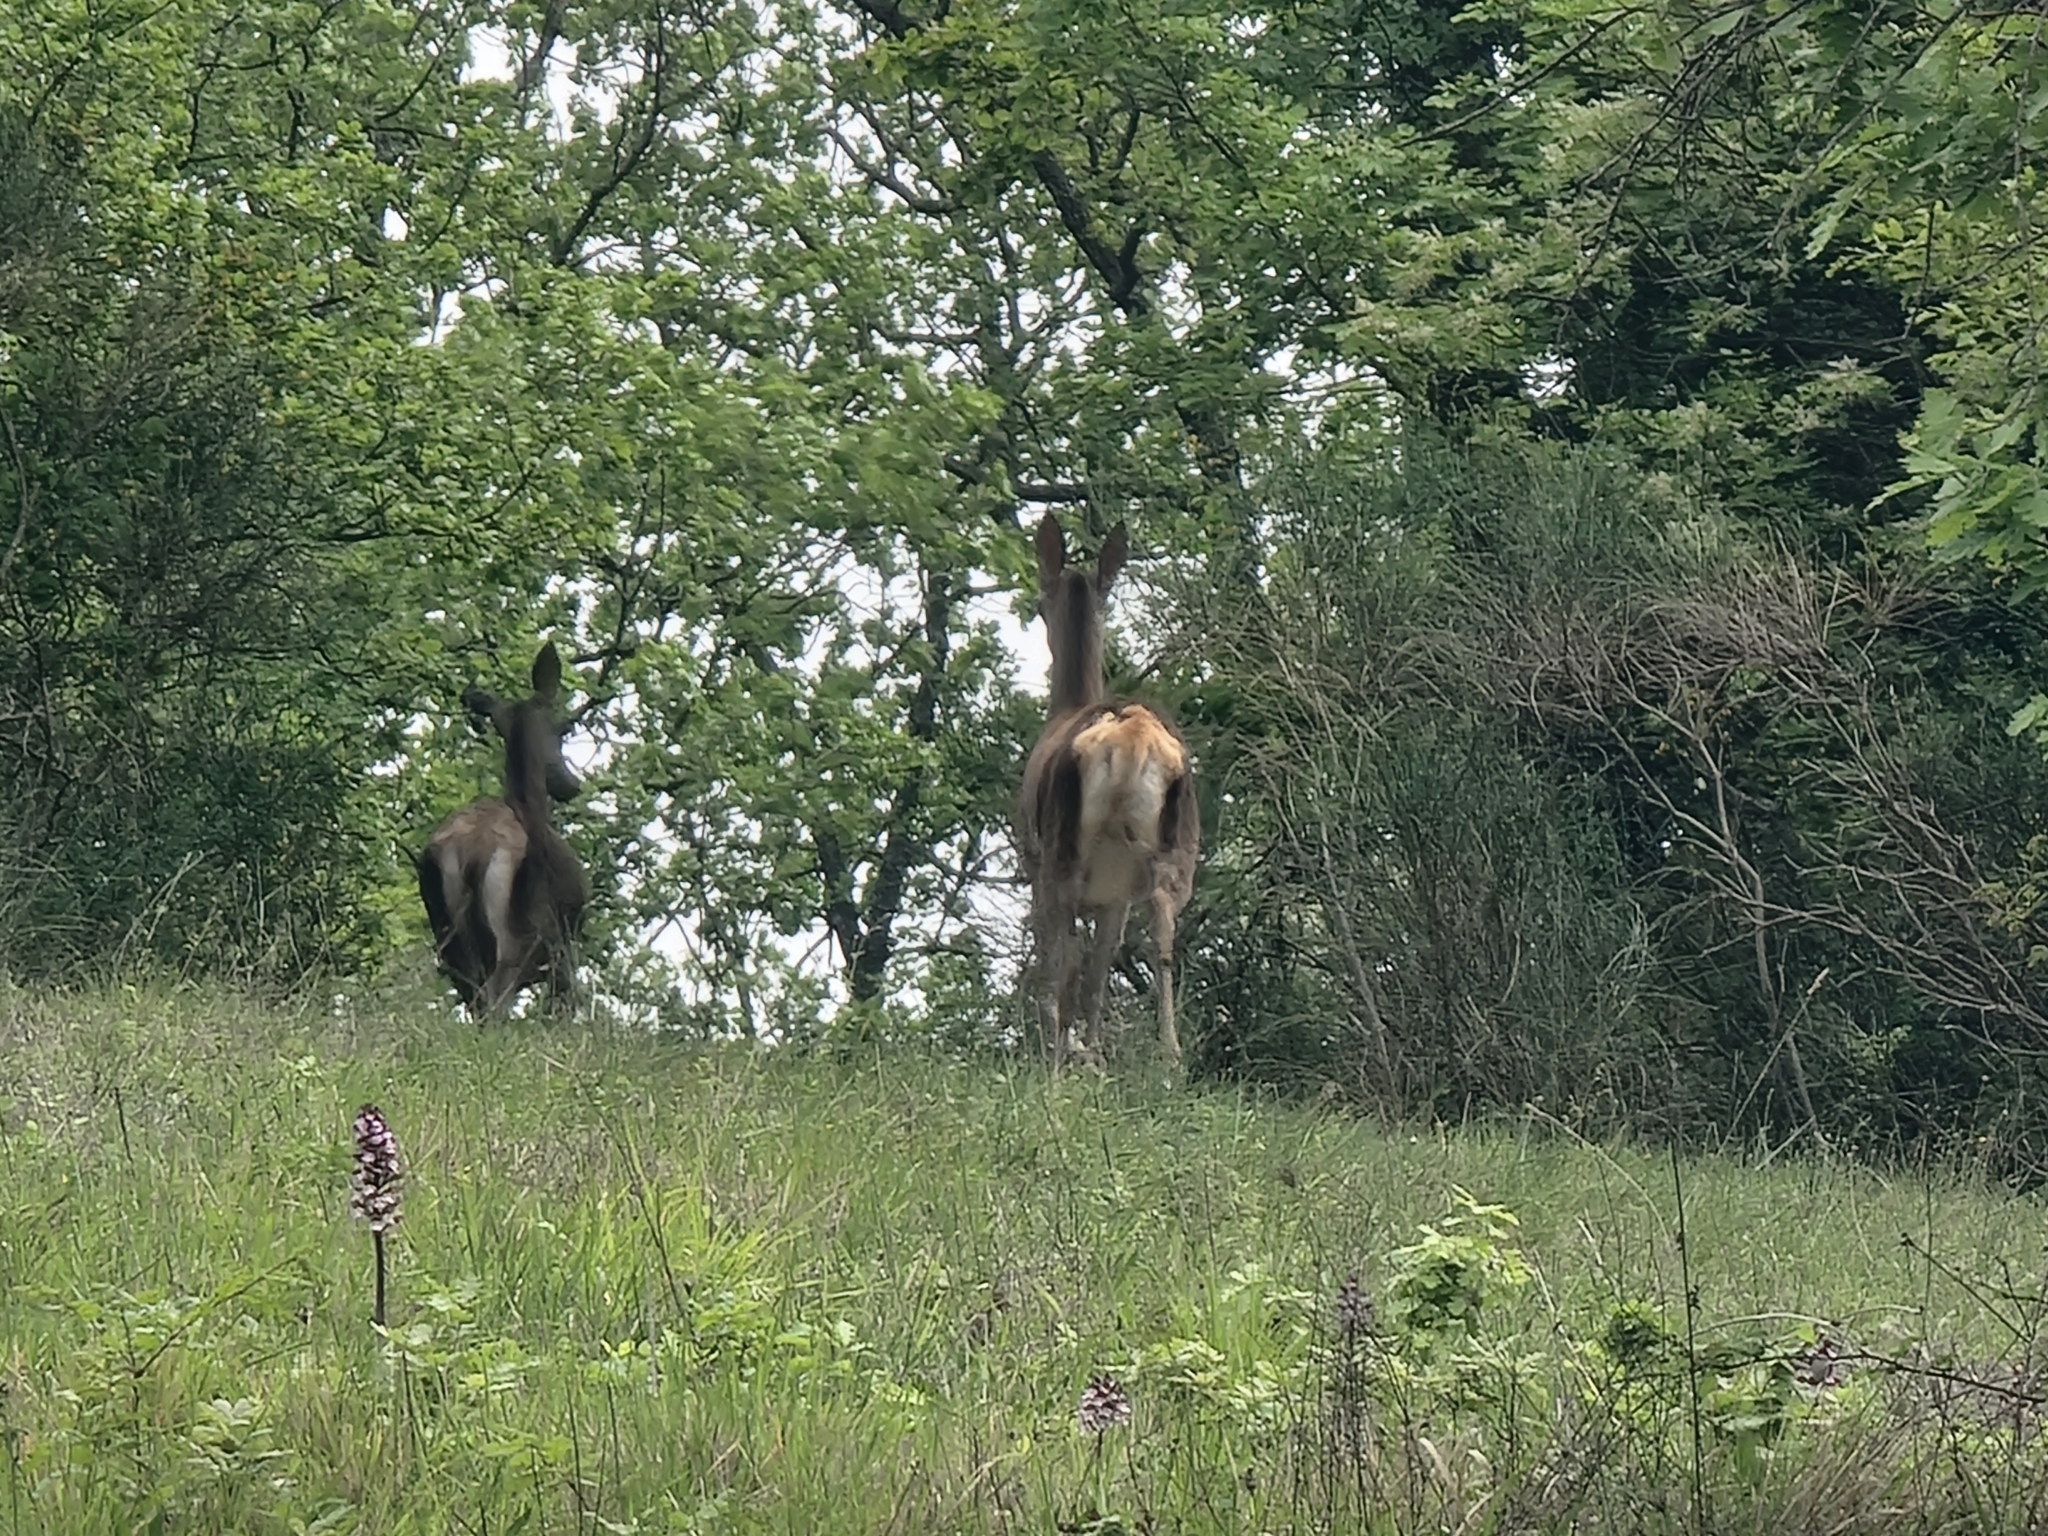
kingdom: Animalia
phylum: Chordata
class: Mammalia
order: Artiodactyla
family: Cervidae
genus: Cervus
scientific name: Cervus elaphus
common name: Red deer
